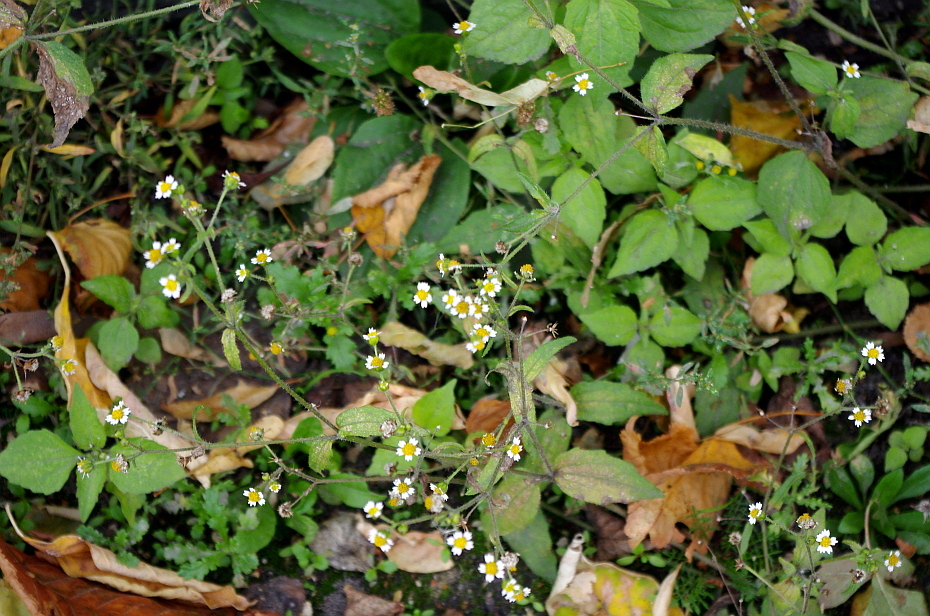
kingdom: Plantae
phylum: Tracheophyta
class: Magnoliopsida
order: Asterales
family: Asteraceae
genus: Galinsoga
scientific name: Galinsoga quadriradiata
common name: Shaggy soldier
